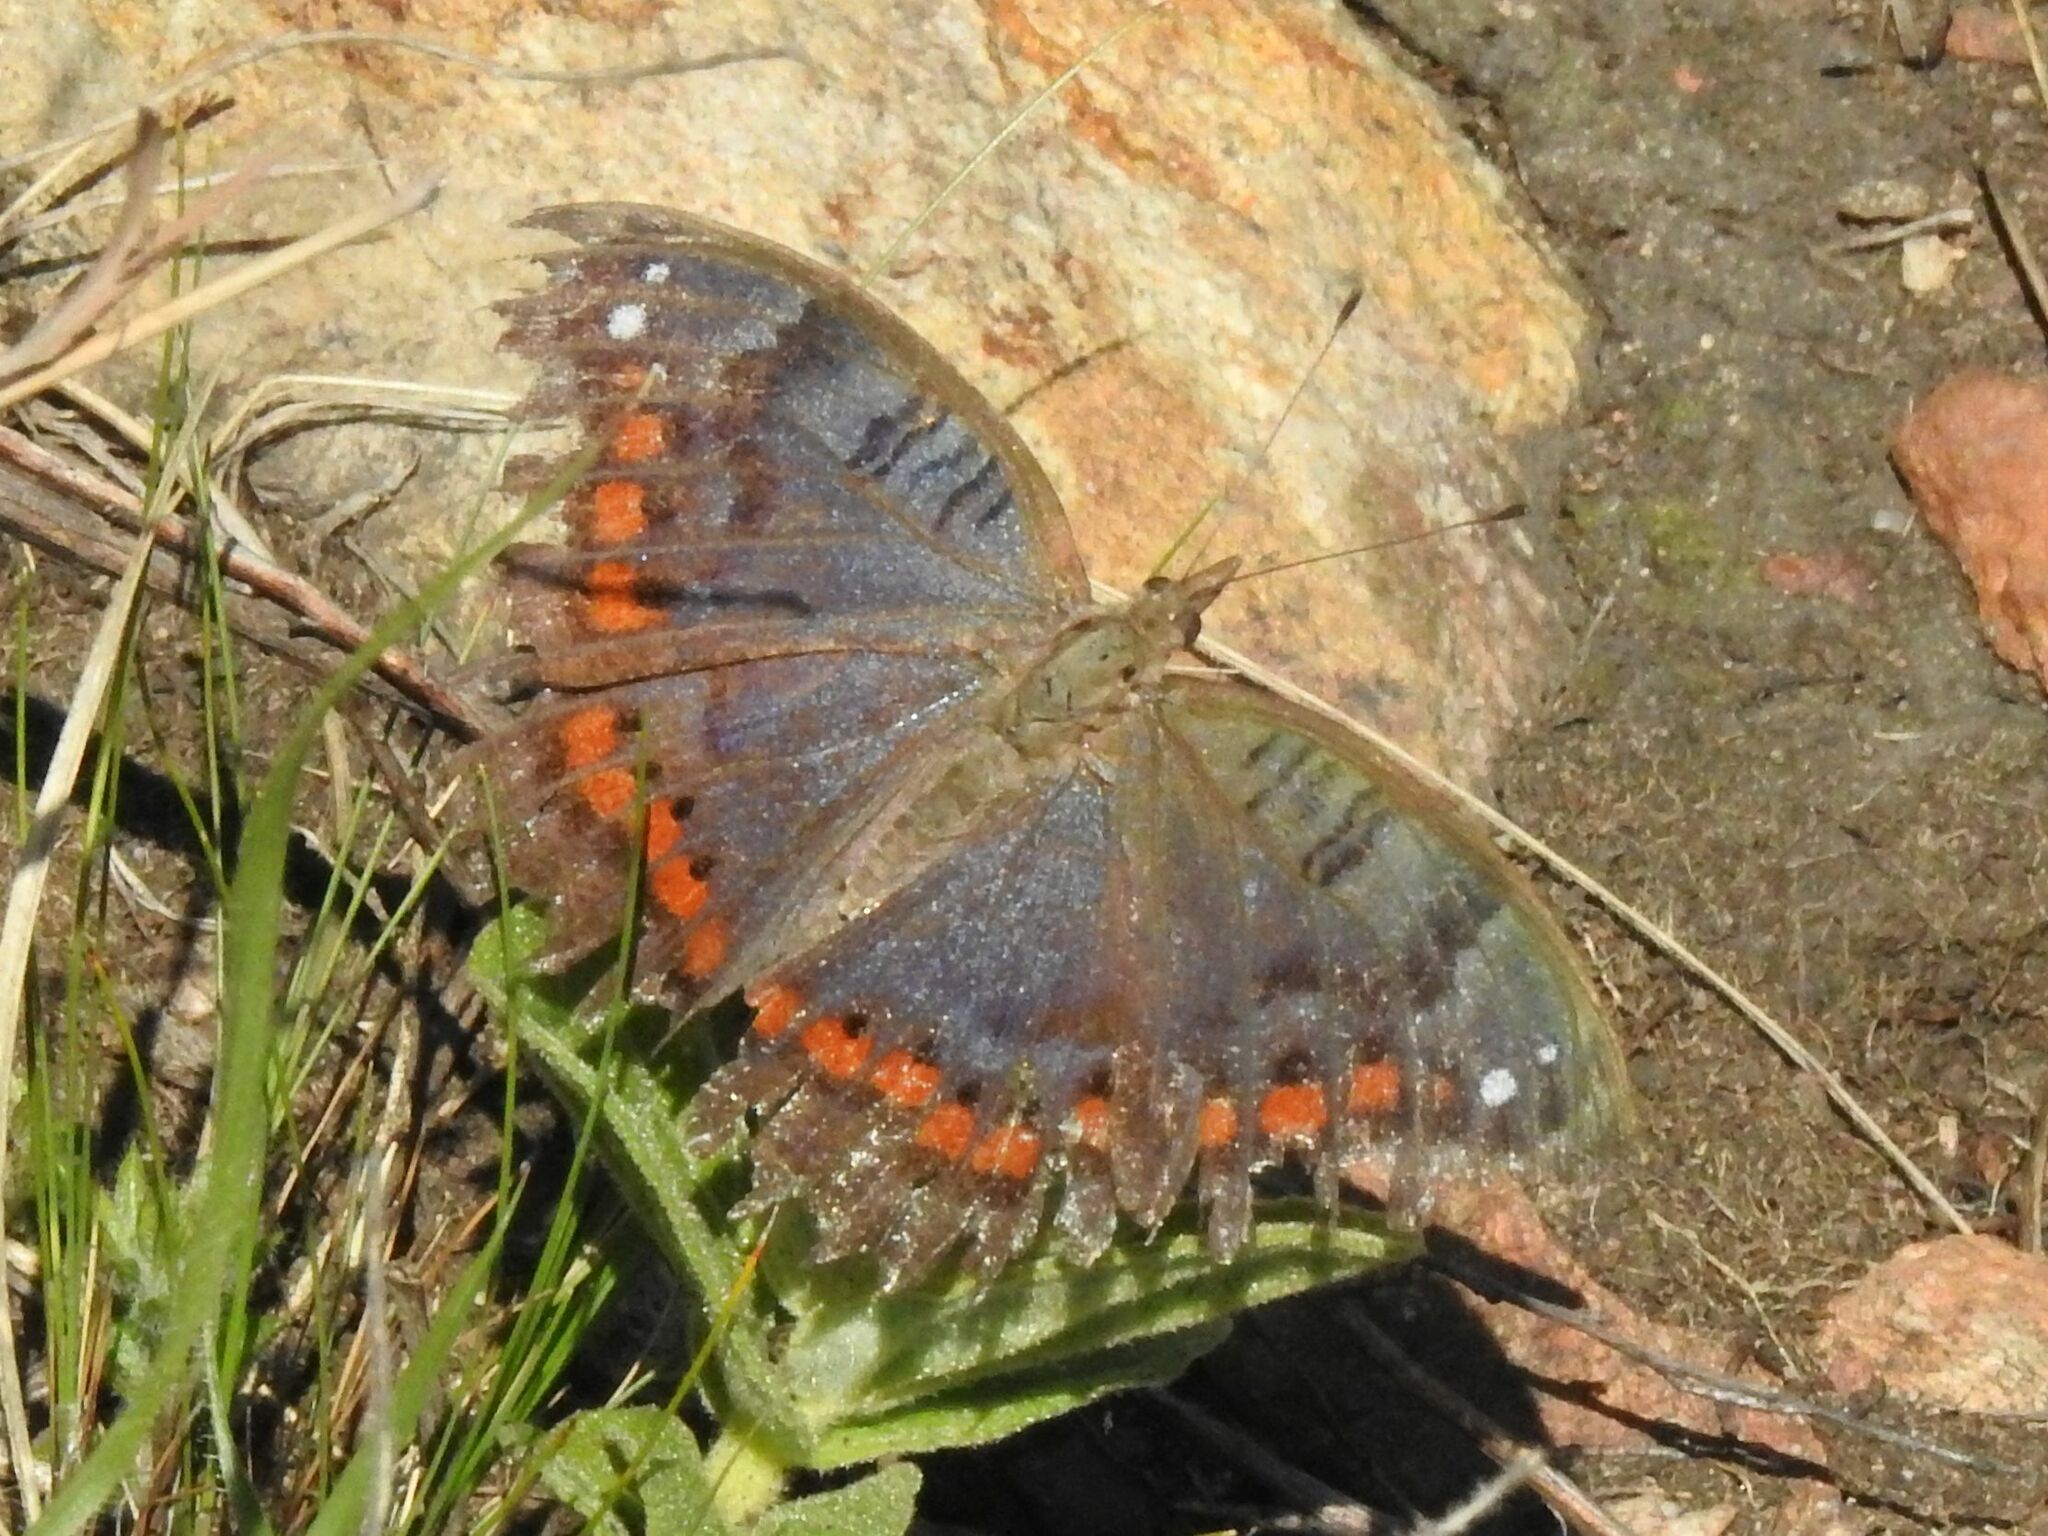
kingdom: Animalia
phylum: Arthropoda
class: Insecta
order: Lepidoptera
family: Nymphalidae
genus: Precis
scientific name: Precis octavia
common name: Gaudy commodore
